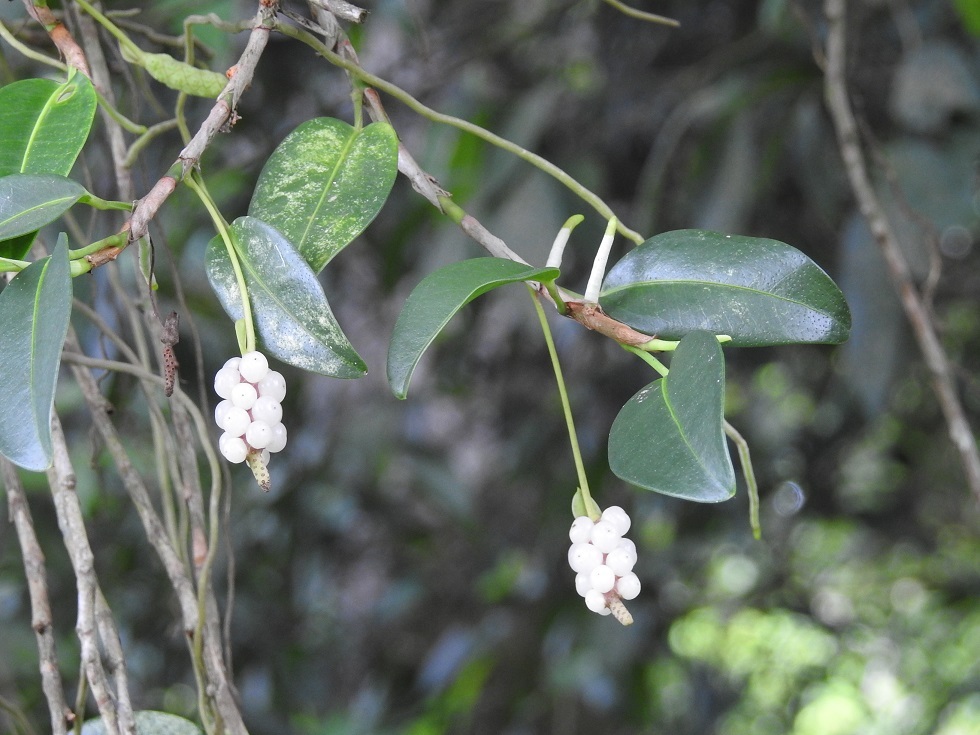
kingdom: Plantae
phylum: Tracheophyta
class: Liliopsida
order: Alismatales
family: Araceae
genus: Anthurium
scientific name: Anthurium scandens
